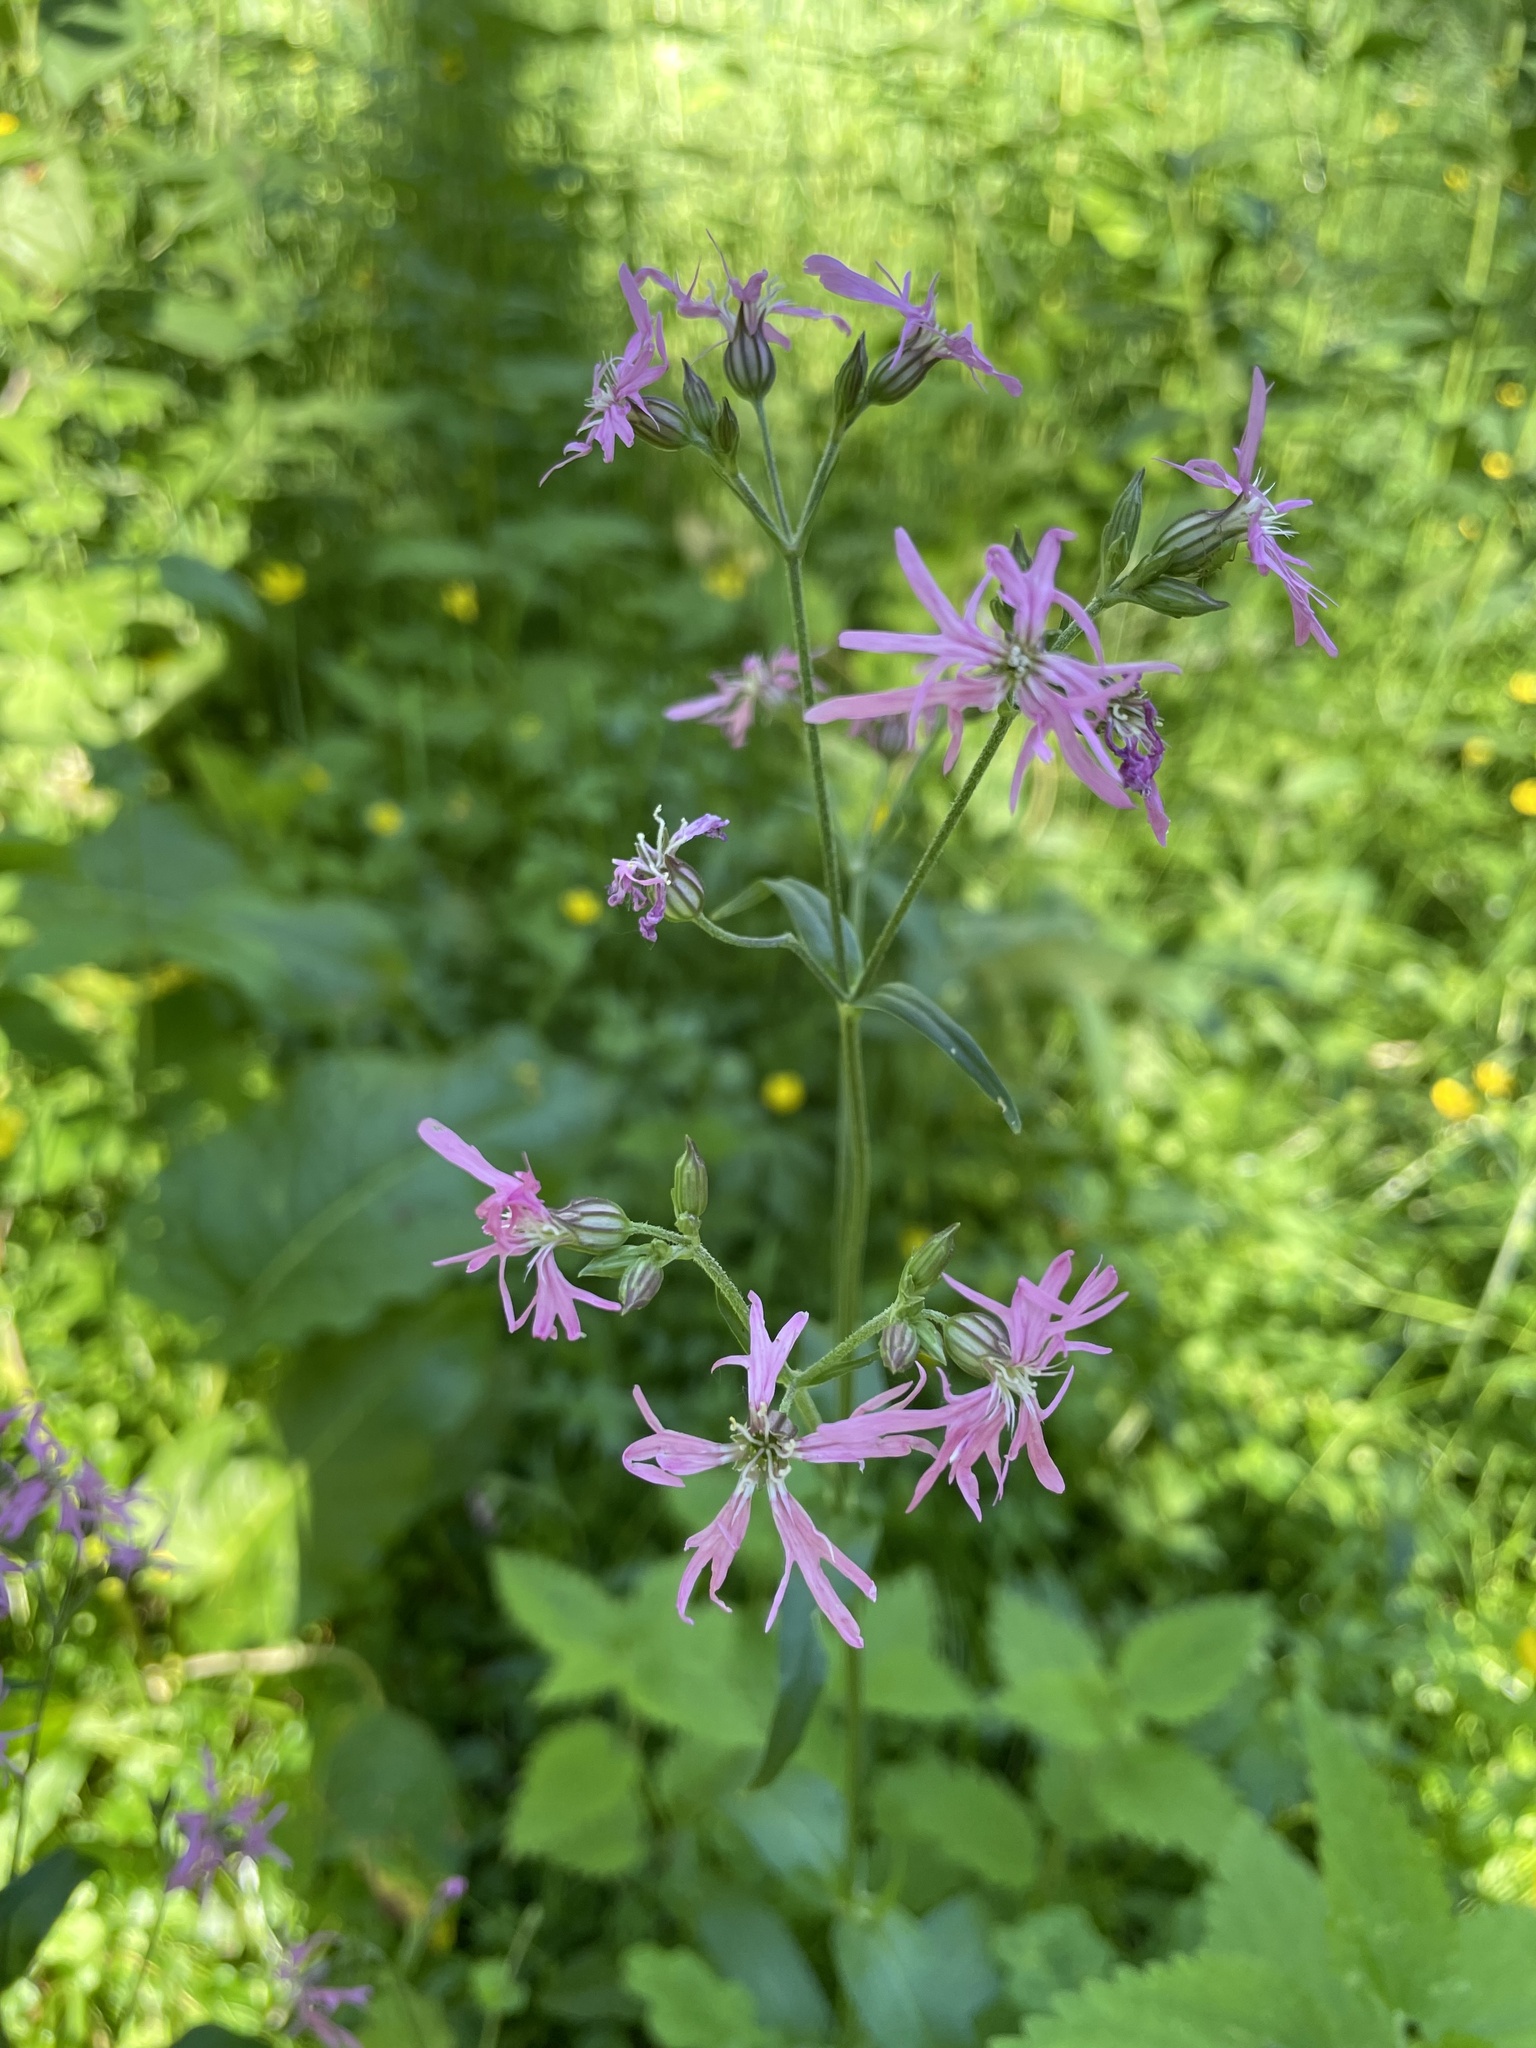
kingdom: Plantae
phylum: Tracheophyta
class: Magnoliopsida
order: Caryophyllales
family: Caryophyllaceae
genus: Silene
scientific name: Silene flos-cuculi
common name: Ragged-robin
